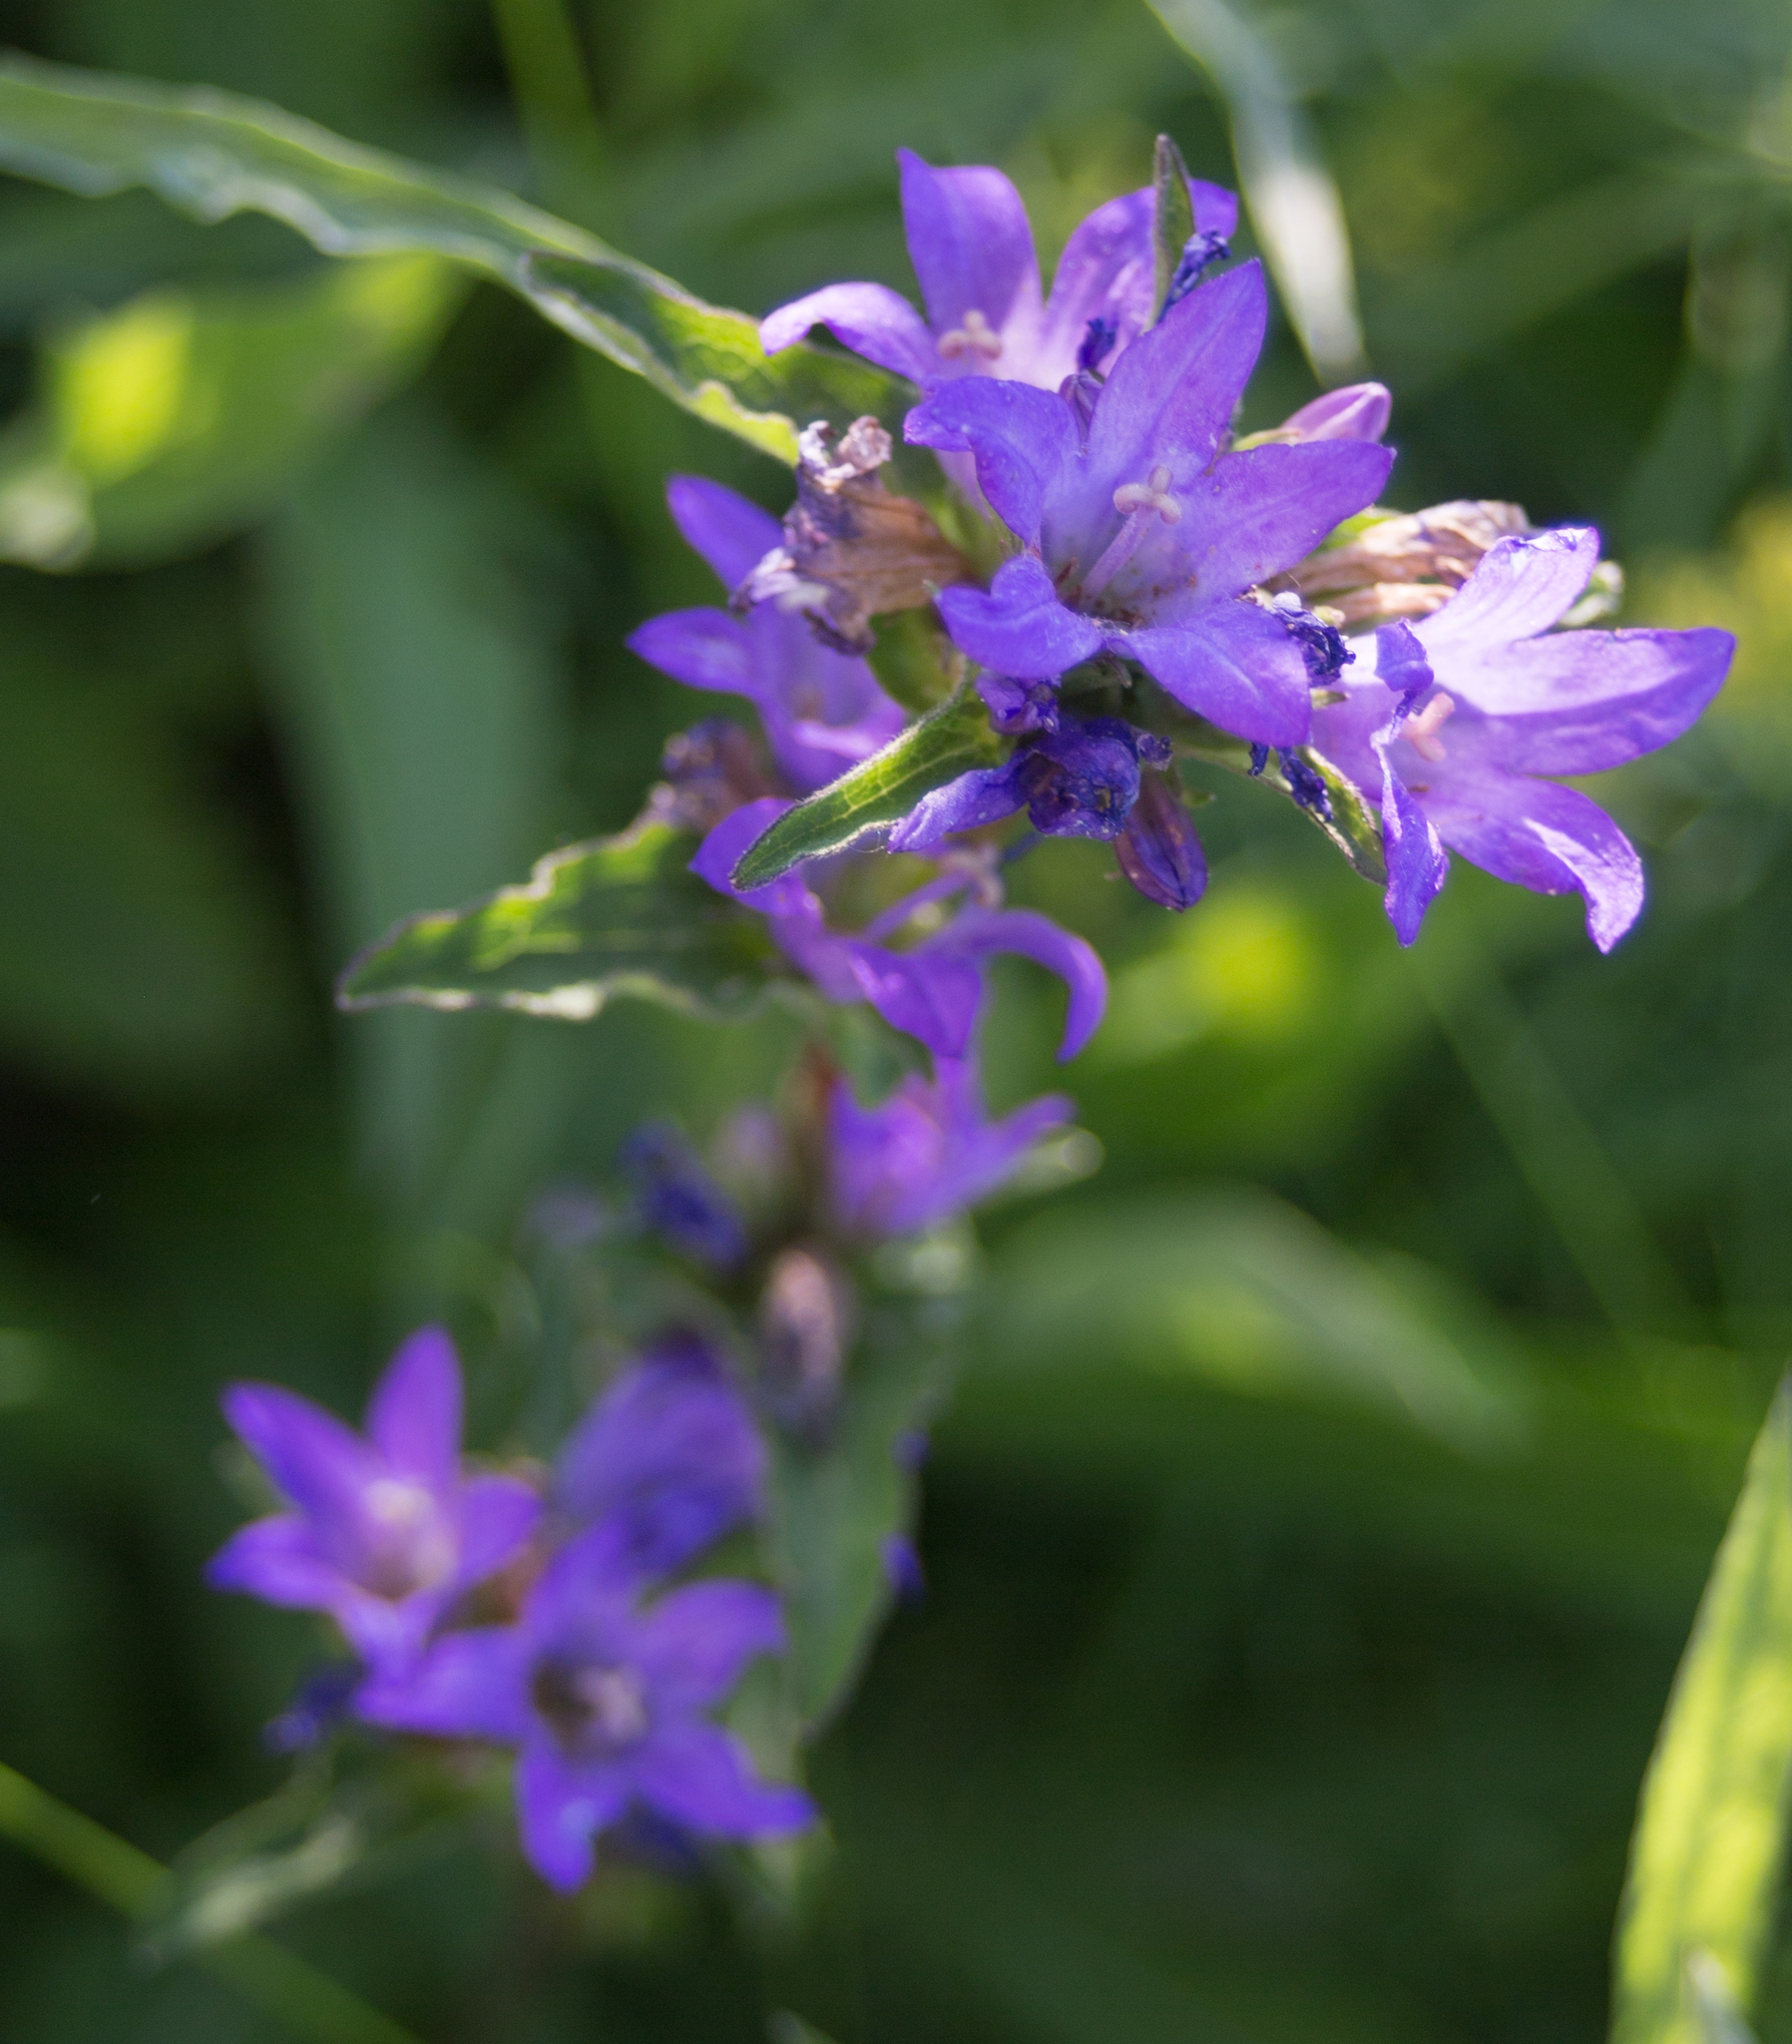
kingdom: Plantae
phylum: Tracheophyta
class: Magnoliopsida
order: Asterales
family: Campanulaceae
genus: Campanula
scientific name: Campanula glomerata
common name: Clustered bellflower
